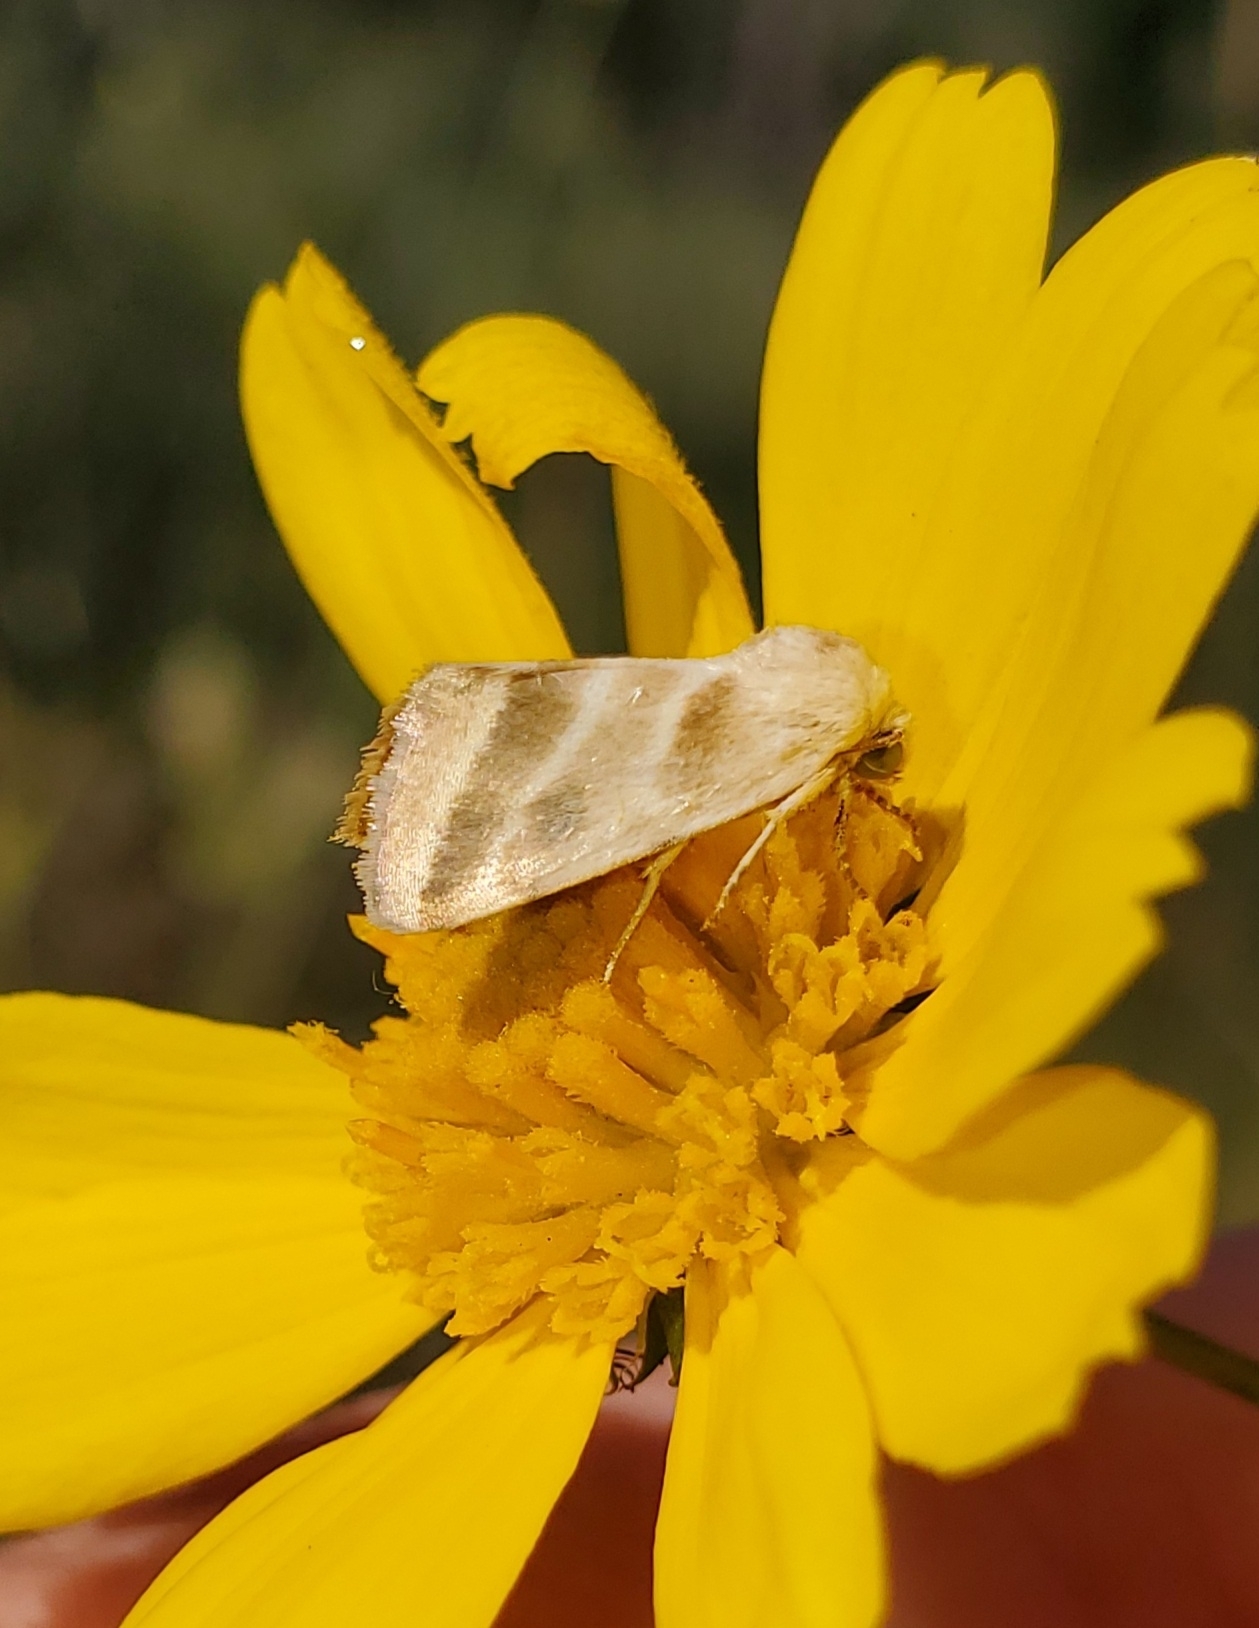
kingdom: Animalia
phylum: Arthropoda
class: Insecta
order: Lepidoptera
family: Noctuidae
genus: Schinia
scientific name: Schinia trifascia
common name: Three-lined flower moth
